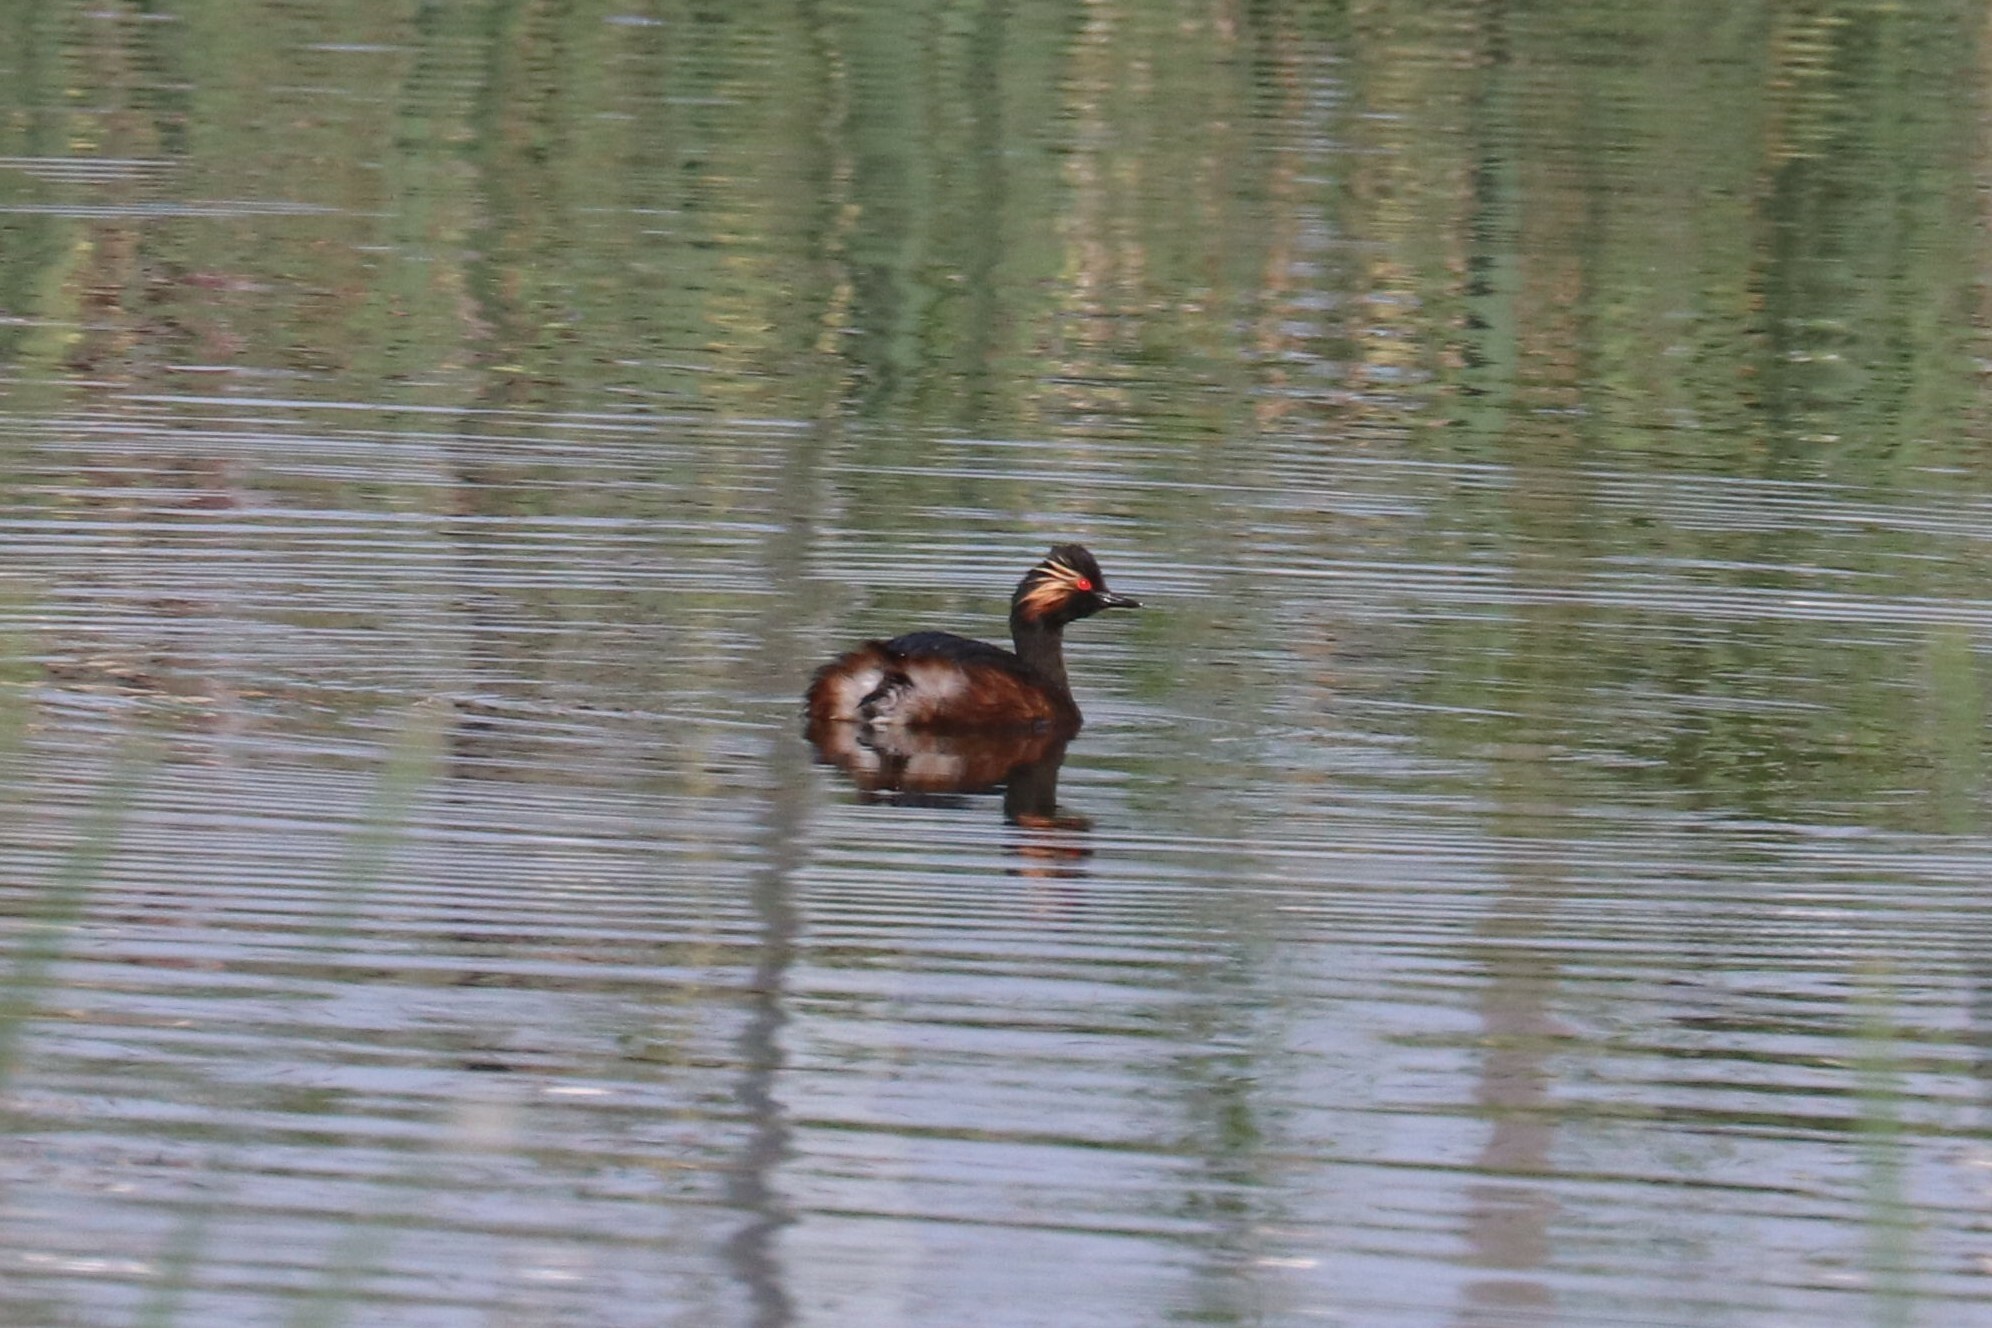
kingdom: Animalia
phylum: Chordata
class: Aves
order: Podicipediformes
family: Podicipedidae
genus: Podiceps
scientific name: Podiceps nigricollis
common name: Black-necked grebe
